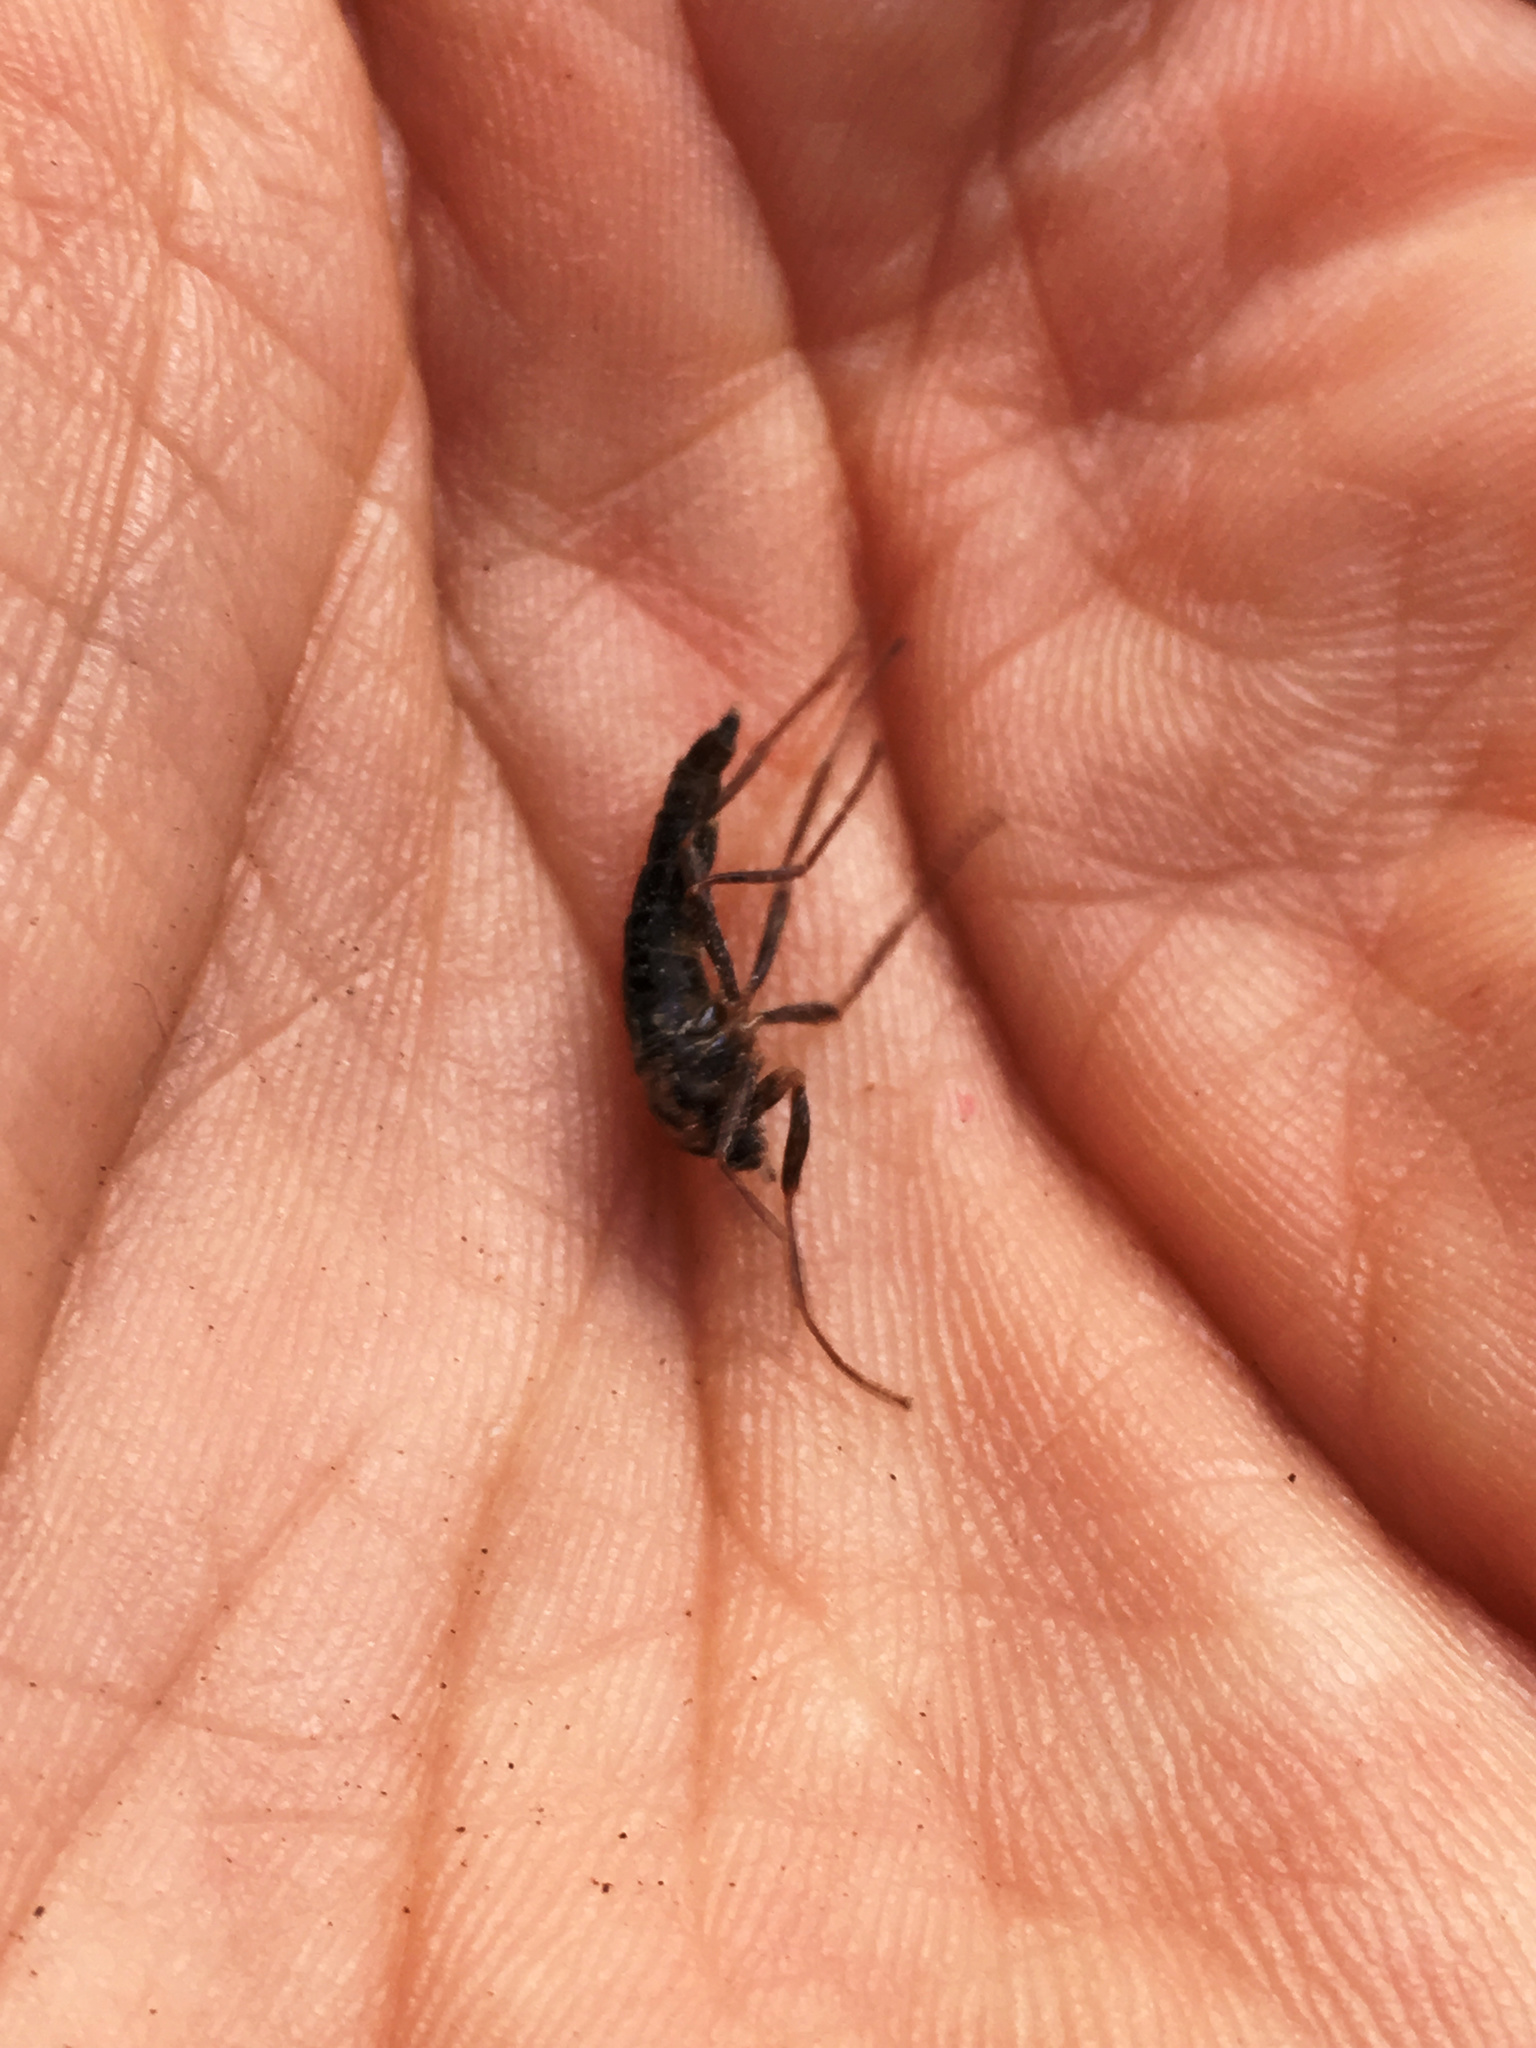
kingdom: Animalia
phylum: Arthropoda
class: Insecta
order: Diptera
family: Stratiomyidae
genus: Boreoides
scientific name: Boreoides tasmaniensis
